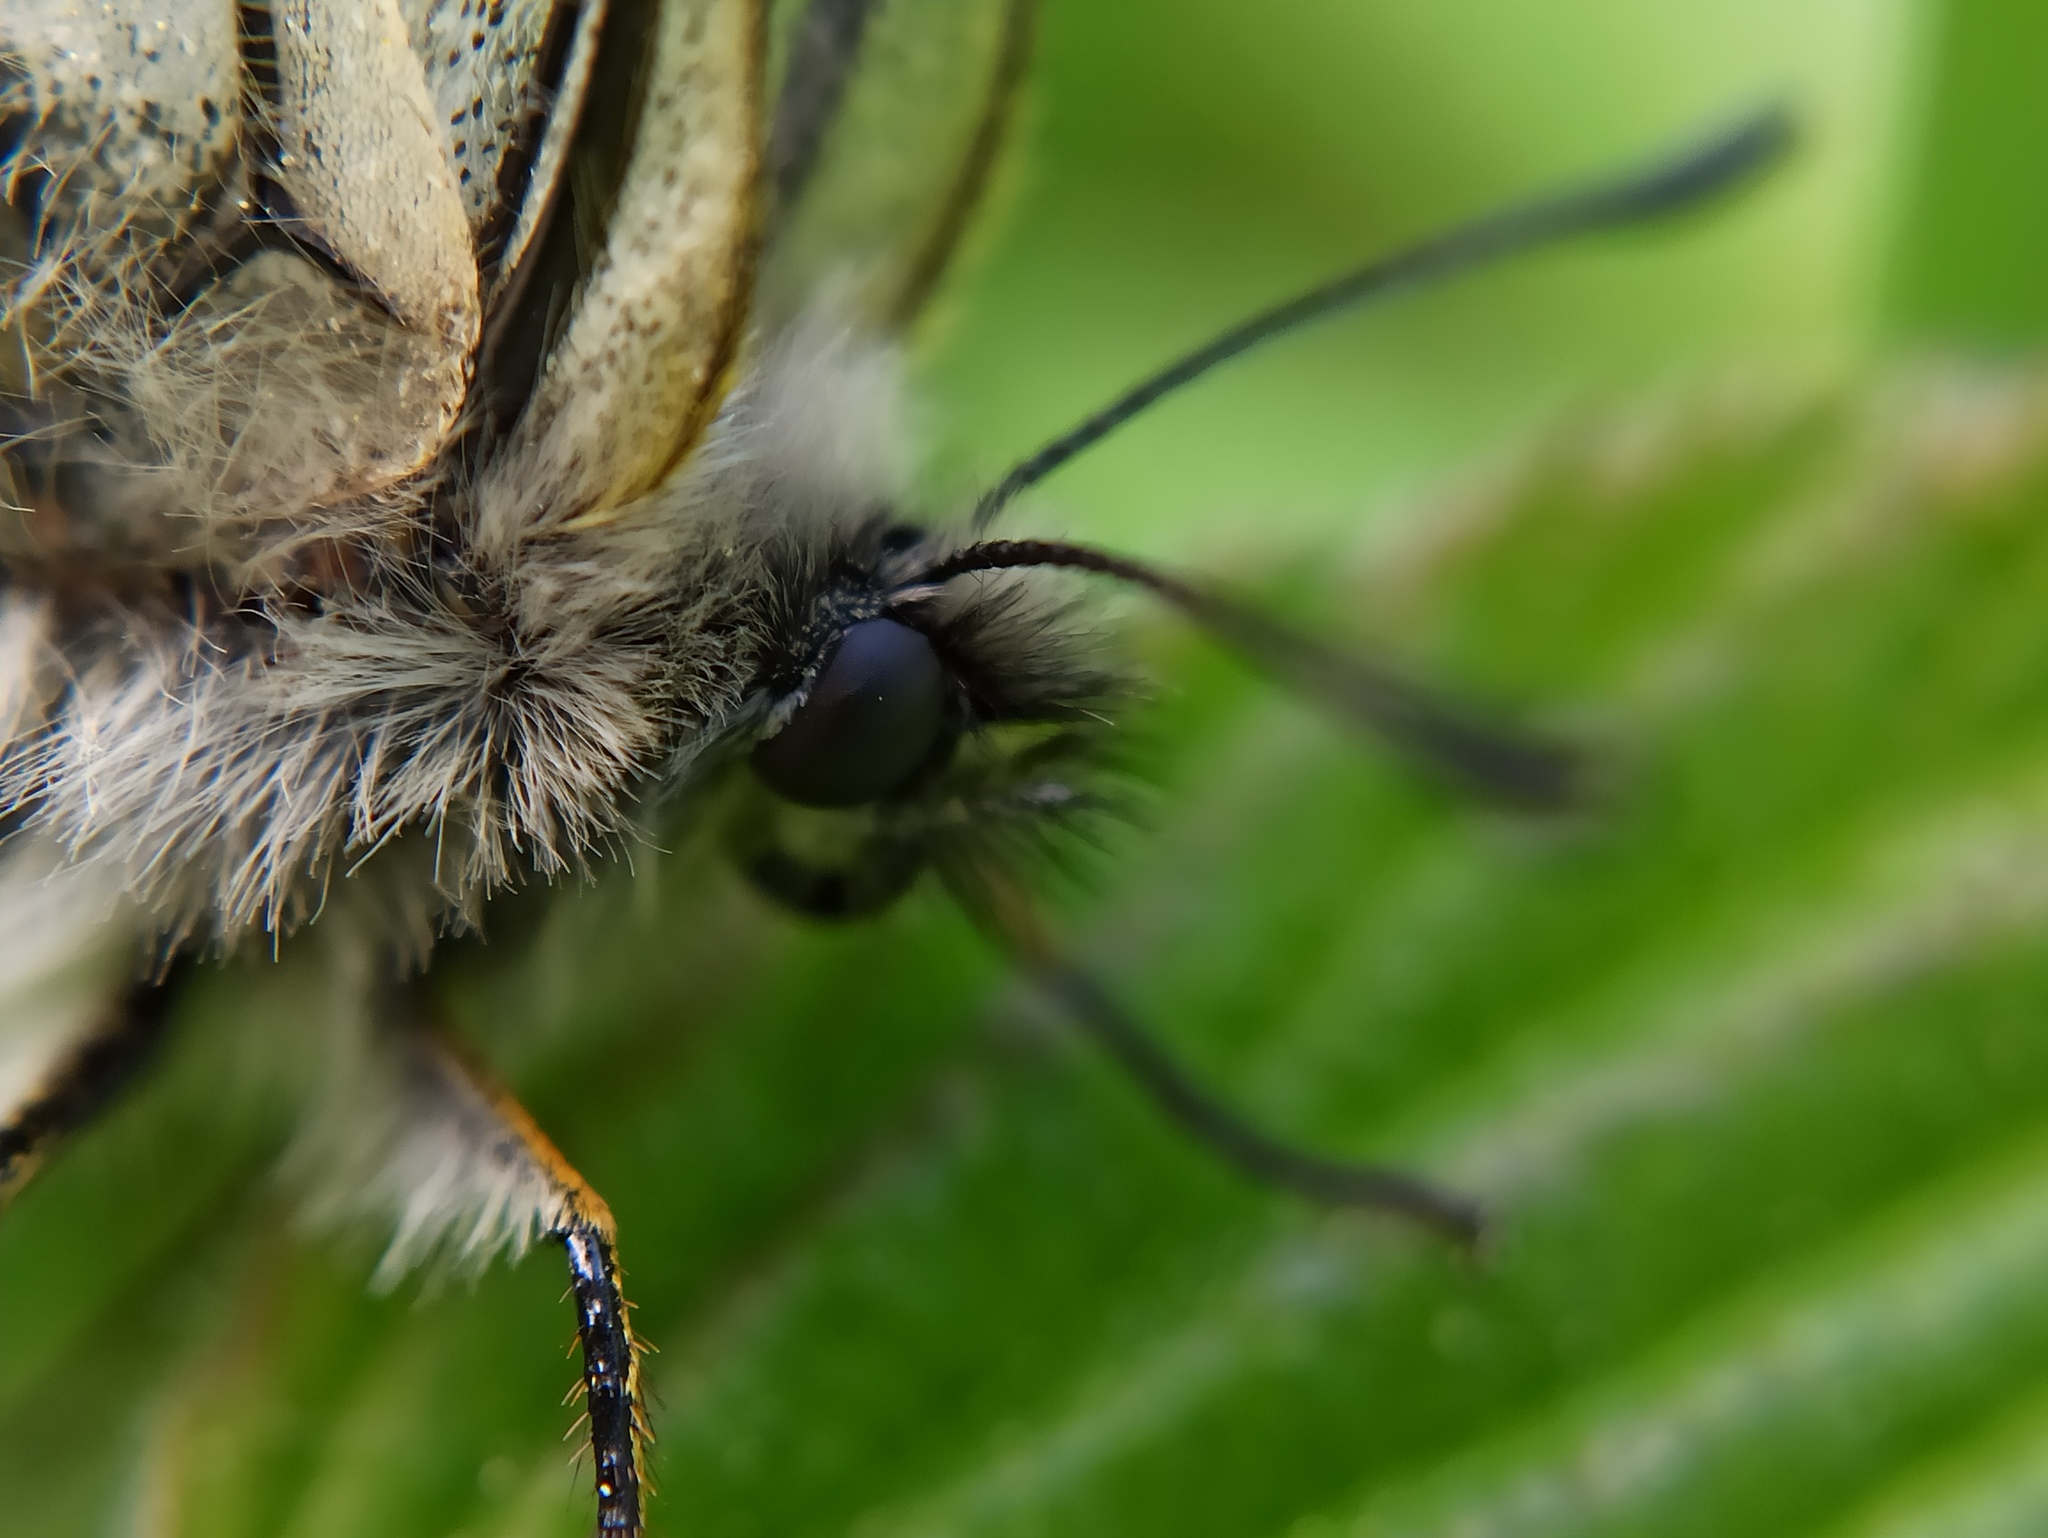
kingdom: Animalia
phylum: Arthropoda
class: Insecta
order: Lepidoptera
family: Papilionidae
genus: Parnassius
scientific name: Parnassius mnemosyne
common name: Clouded apollo
